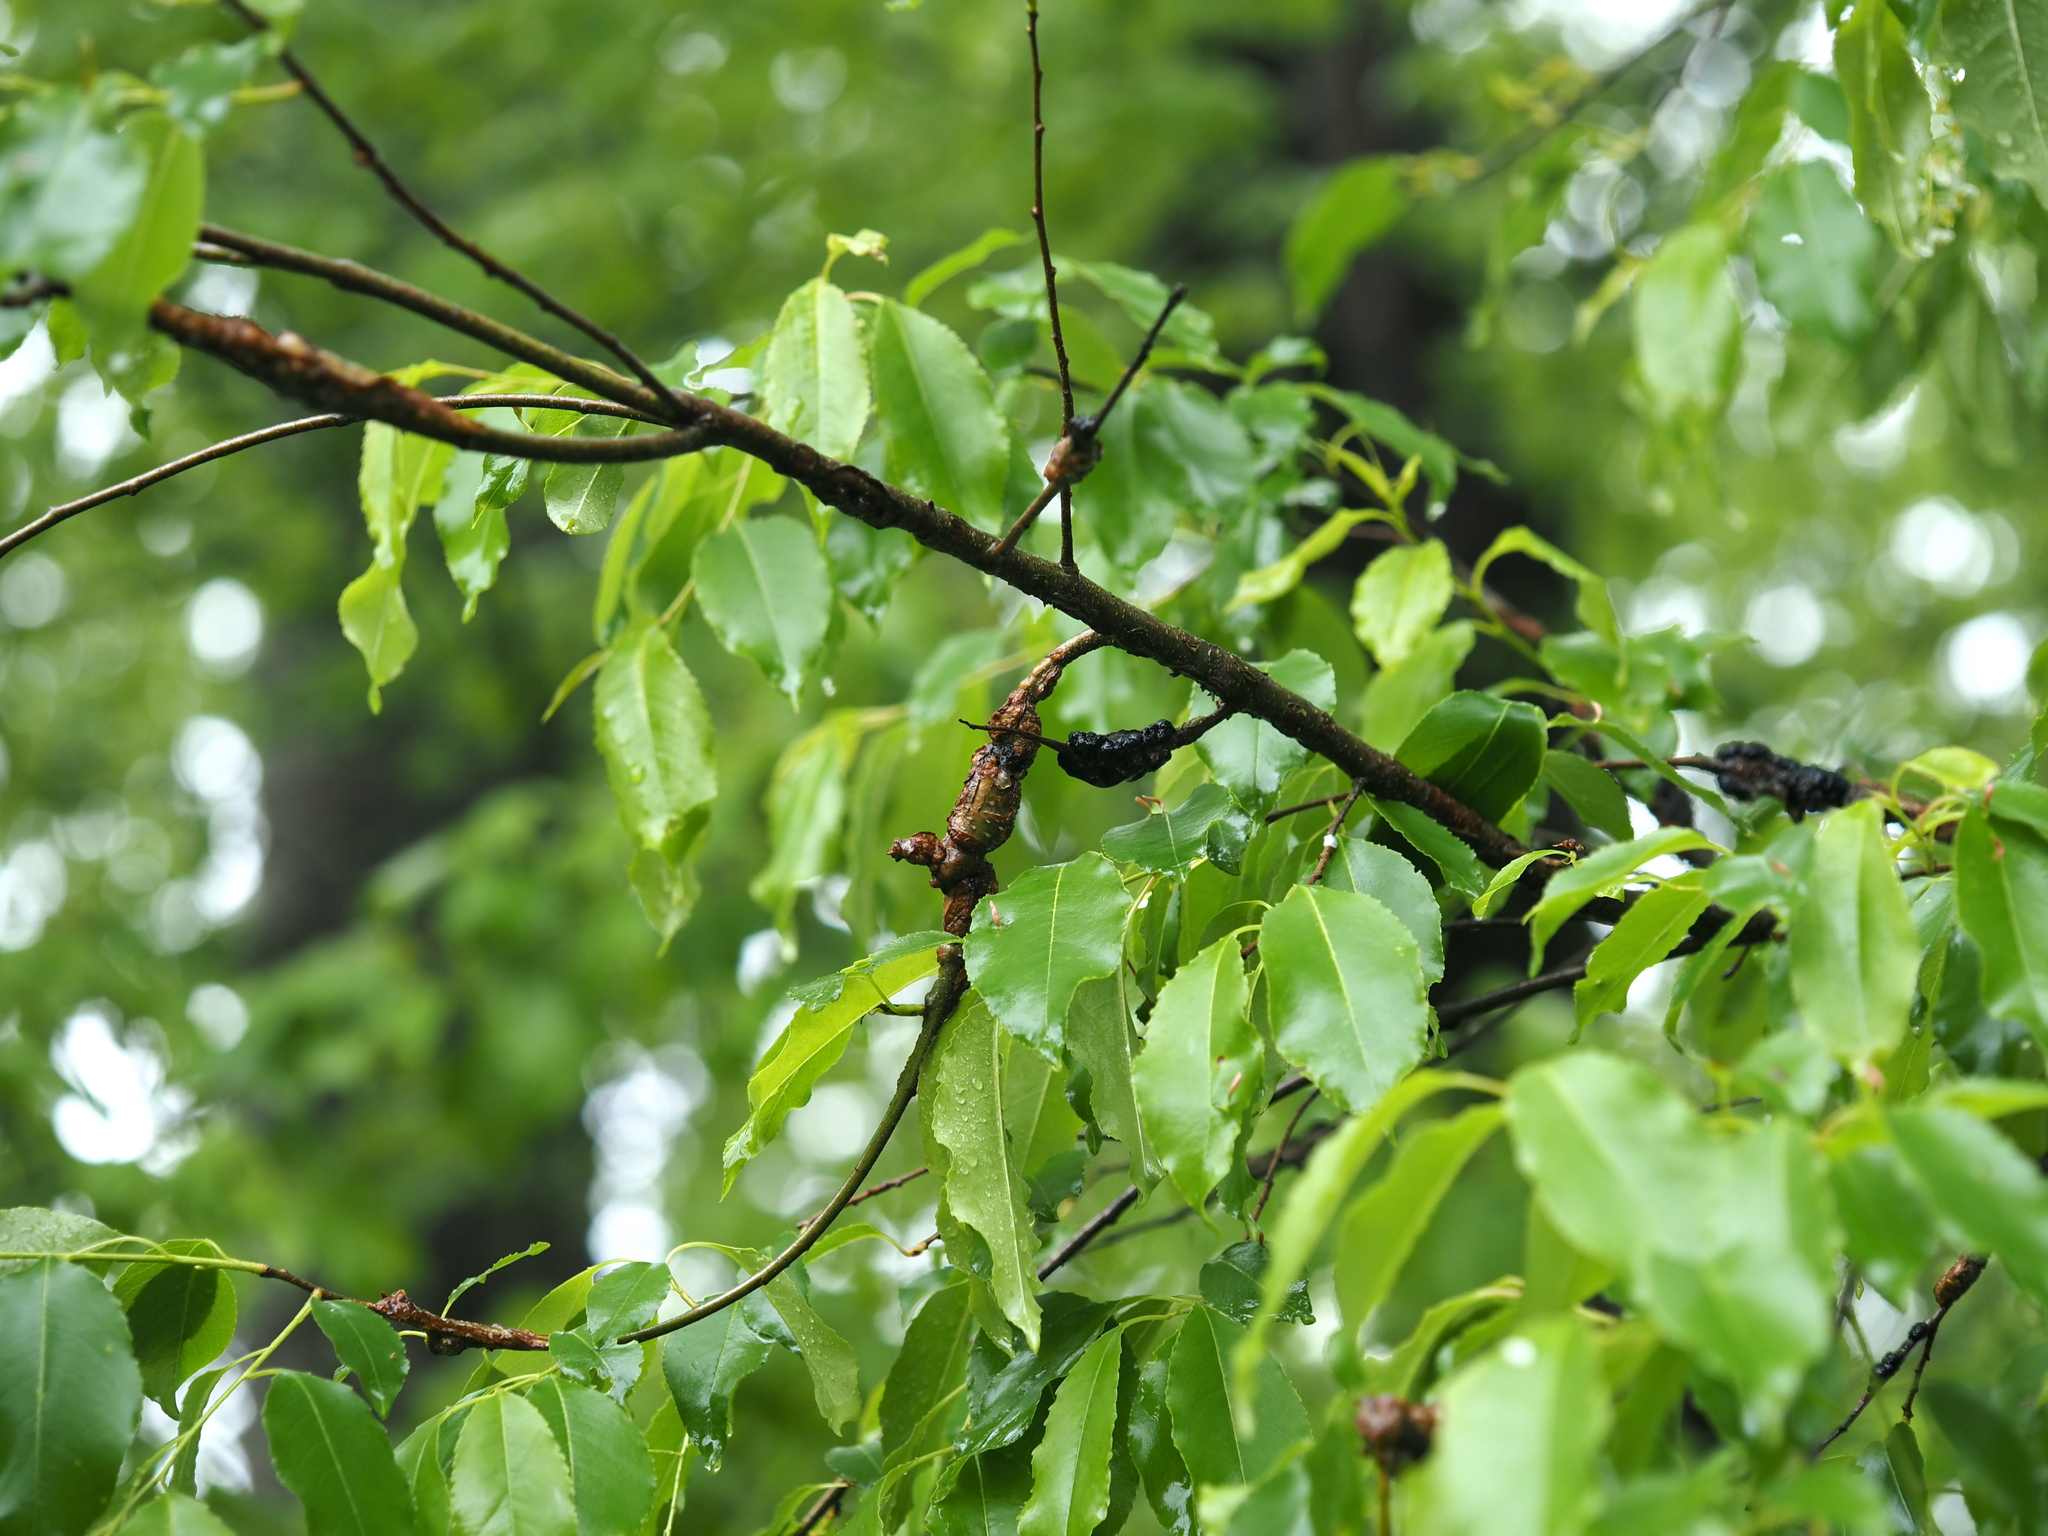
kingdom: Fungi
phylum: Ascomycota
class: Dothideomycetes
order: Venturiales
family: Venturiaceae
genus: Apiosporina
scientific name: Apiosporina morbosa
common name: Black knot
